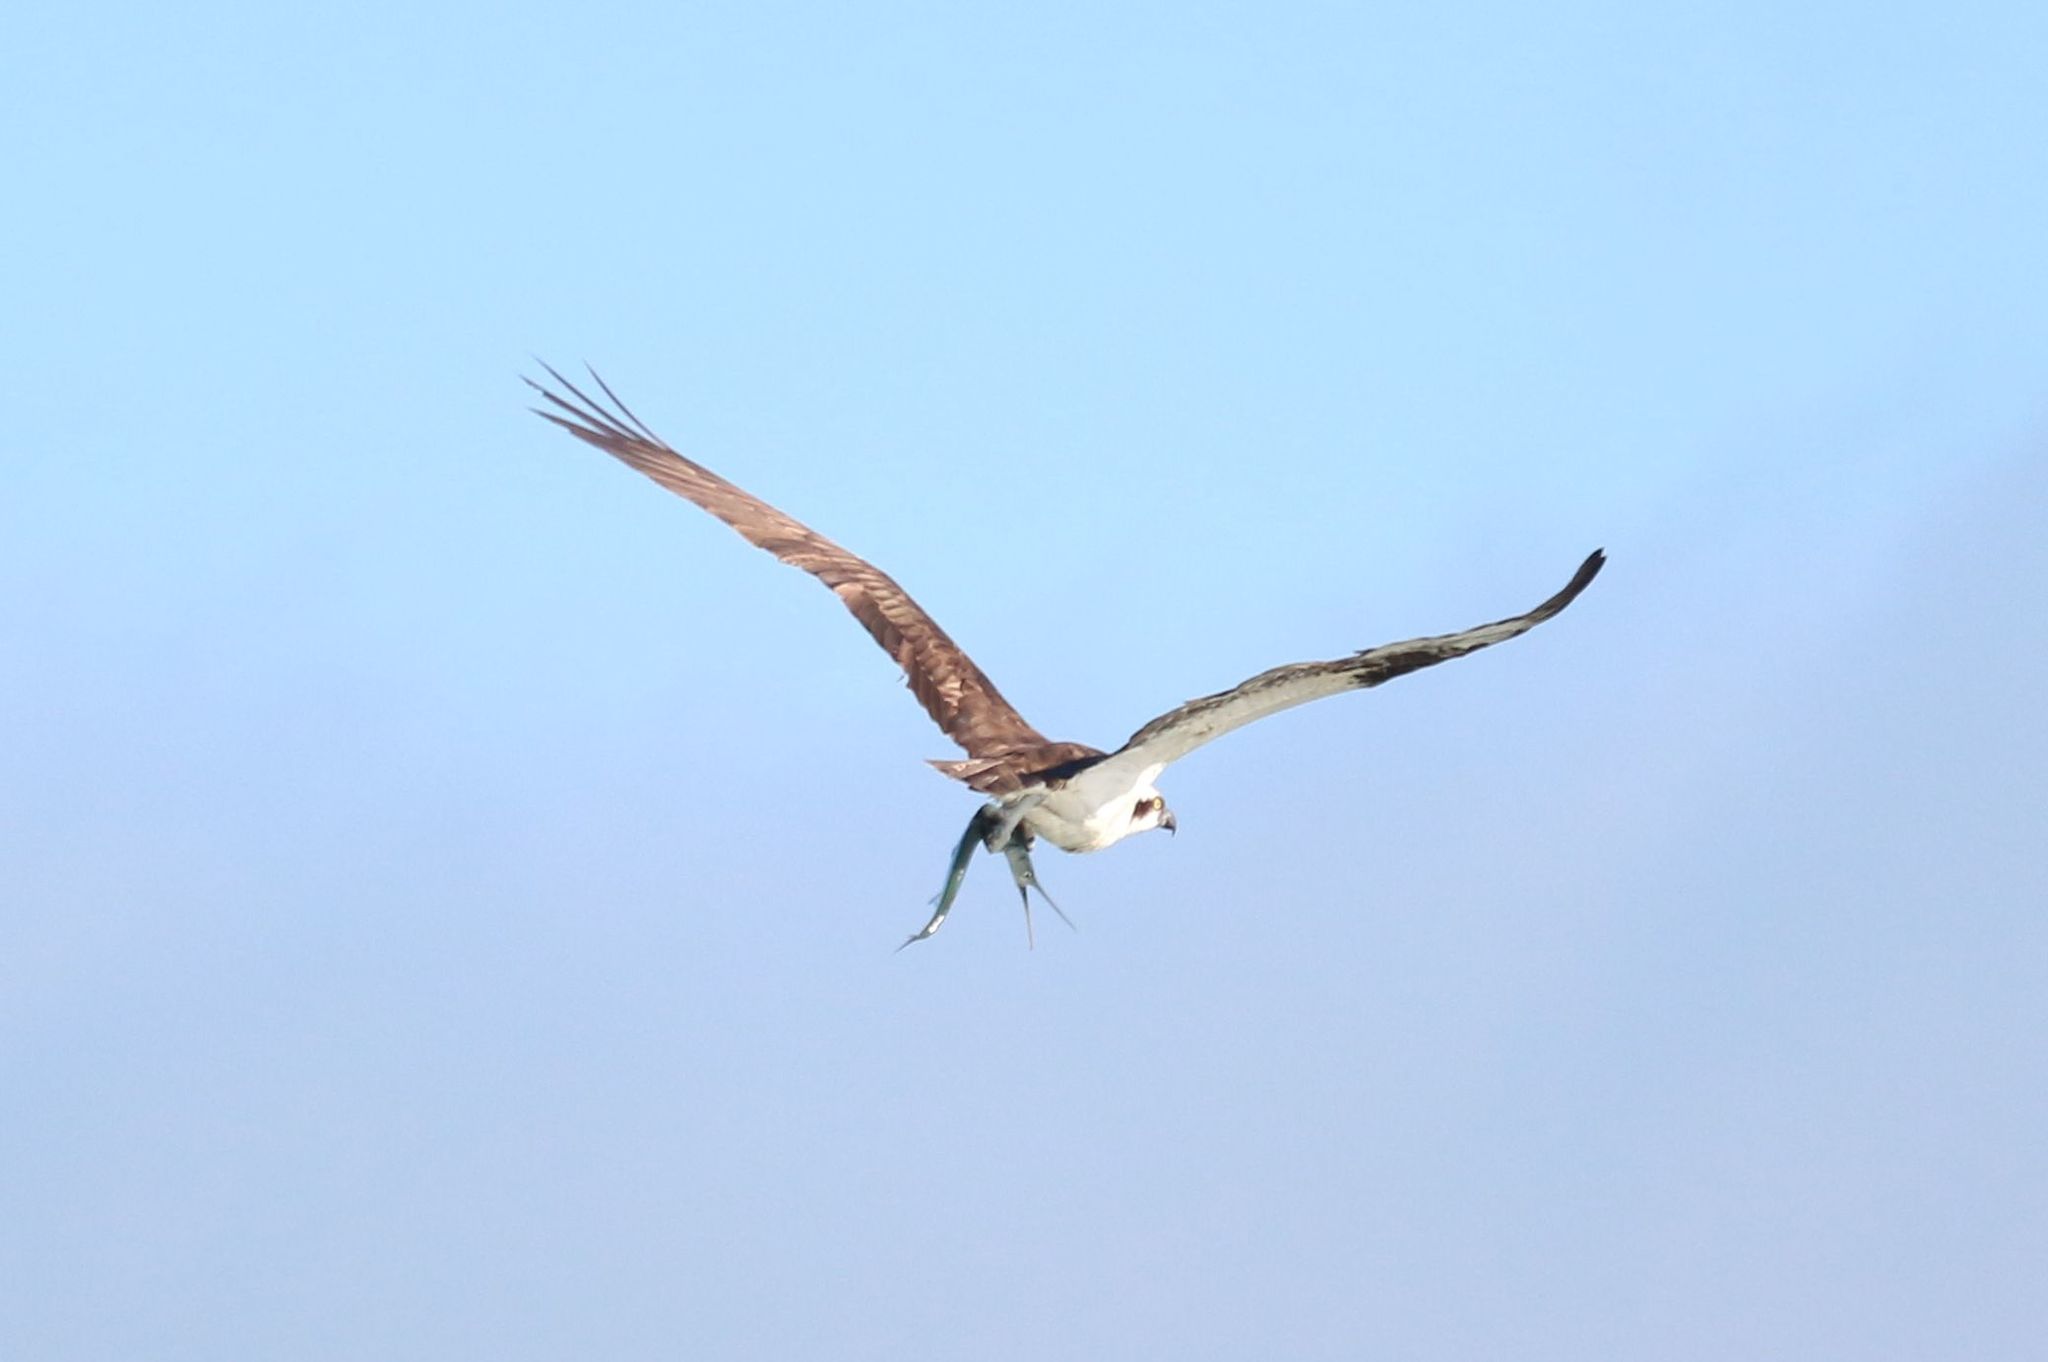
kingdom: Animalia
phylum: Chordata
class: Aves
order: Accipitriformes
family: Pandionidae
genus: Pandion
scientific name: Pandion haliaetus
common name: Osprey
